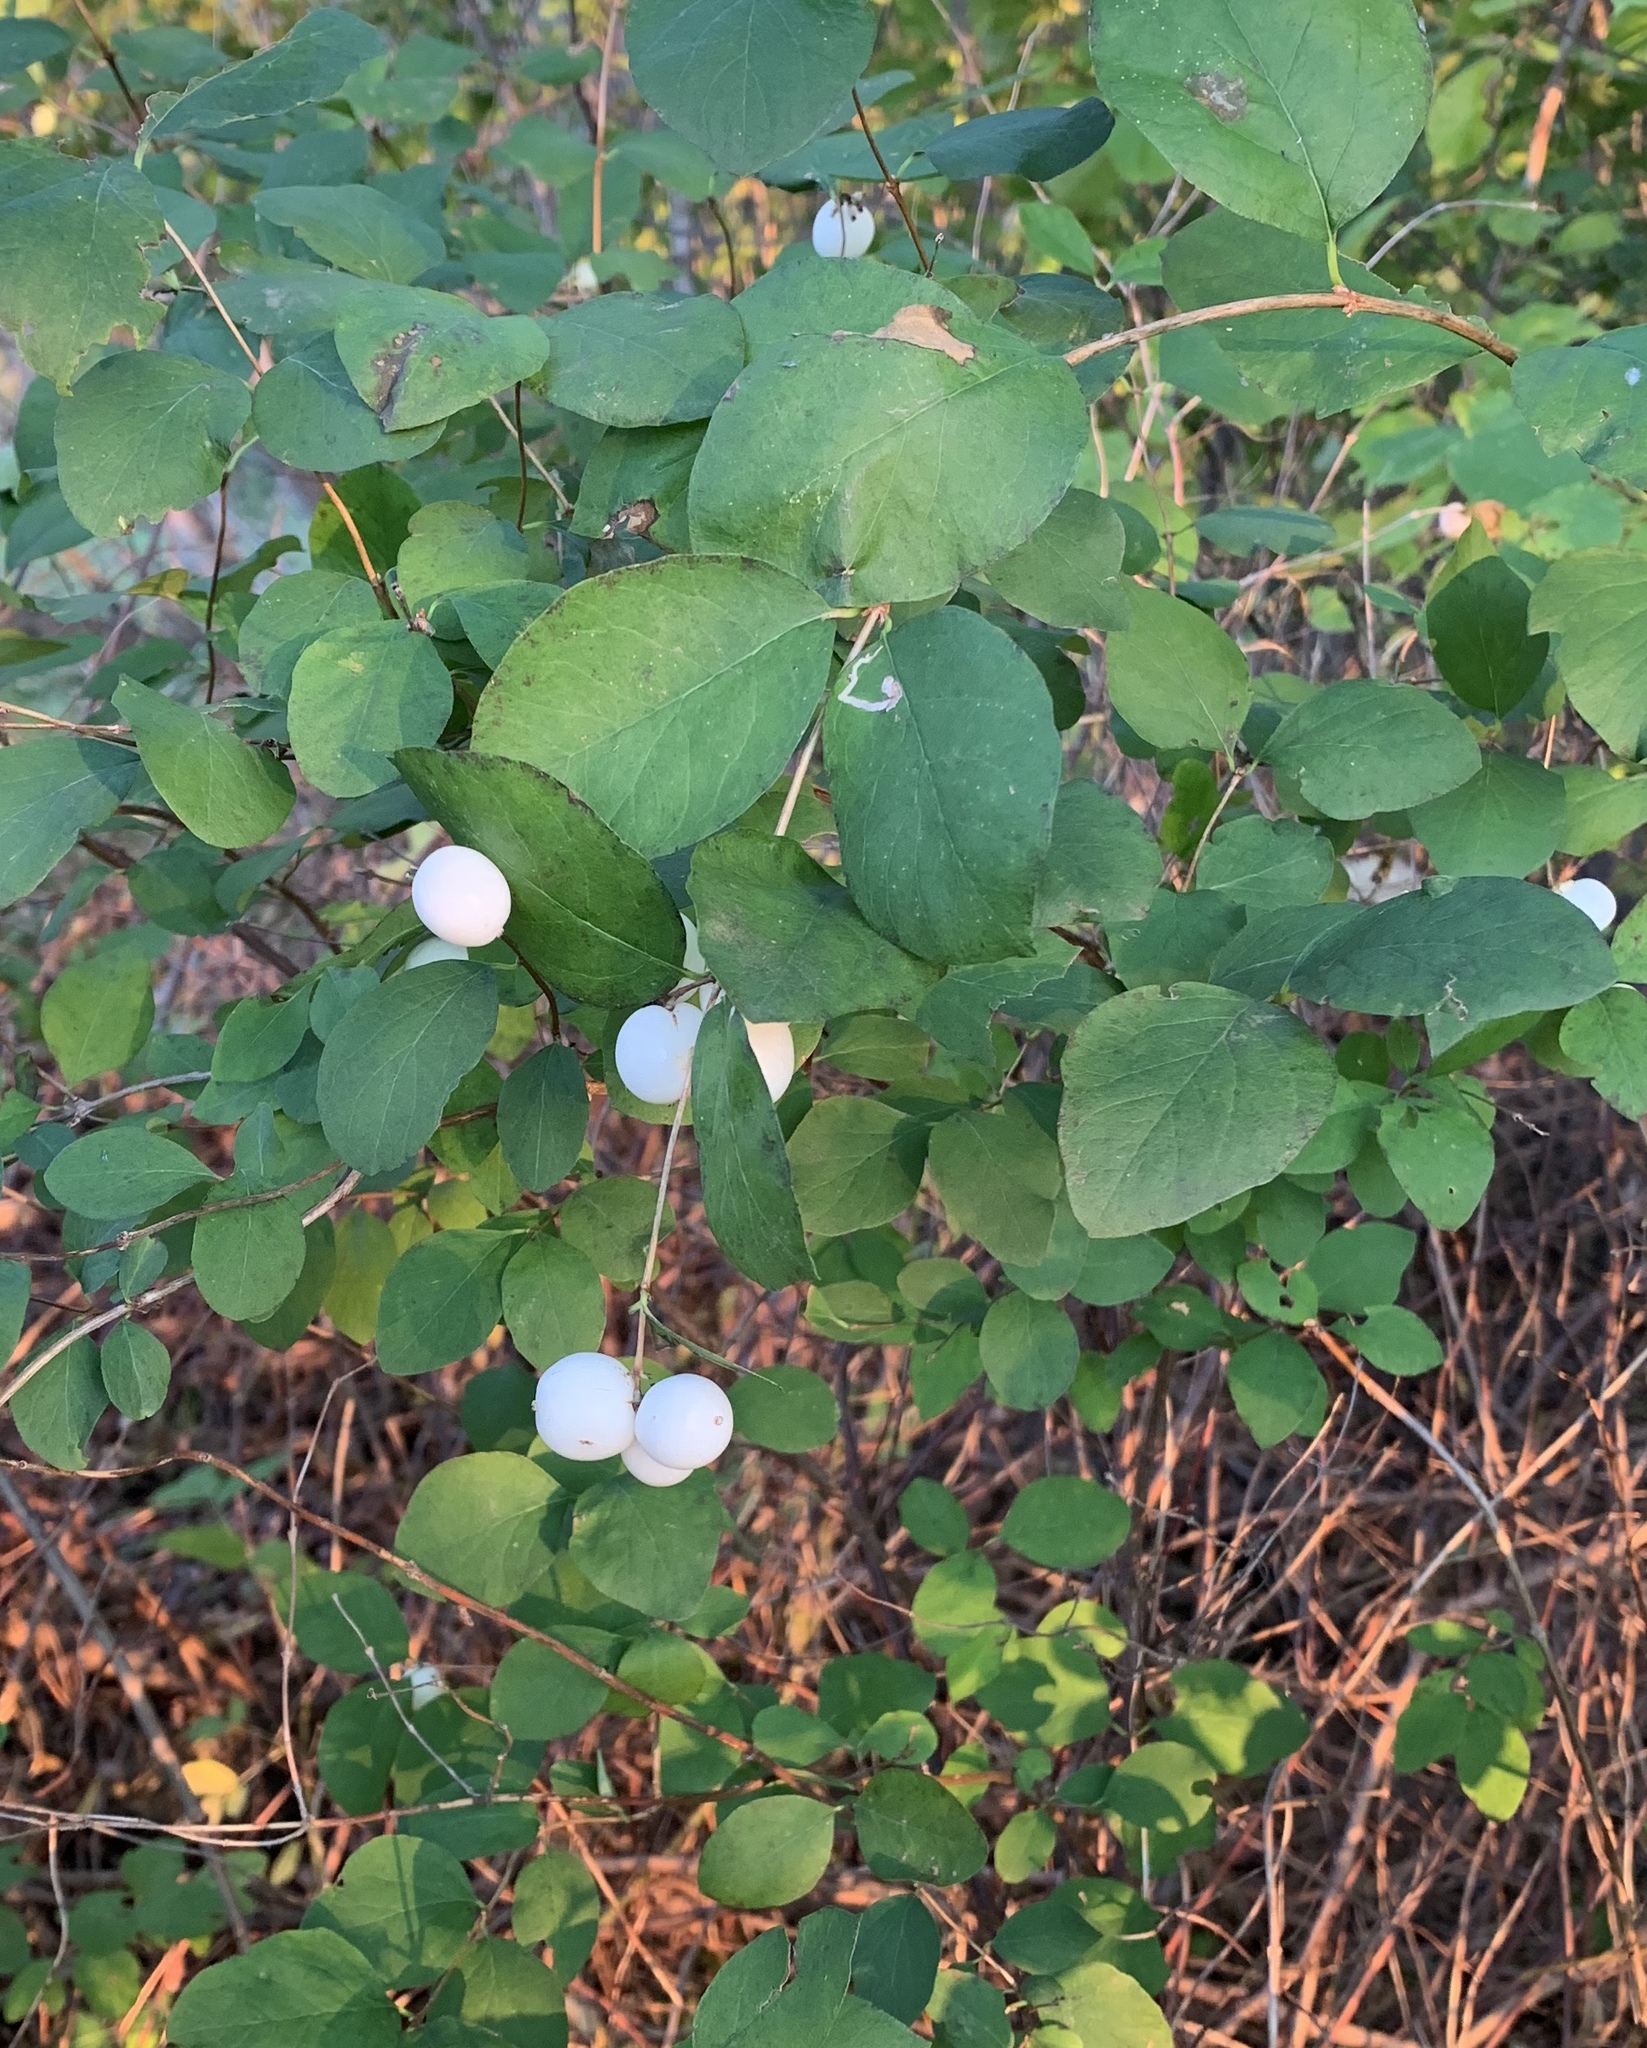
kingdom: Plantae
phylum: Tracheophyta
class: Magnoliopsida
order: Dipsacales
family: Caprifoliaceae
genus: Symphoricarpos
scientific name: Symphoricarpos albus
